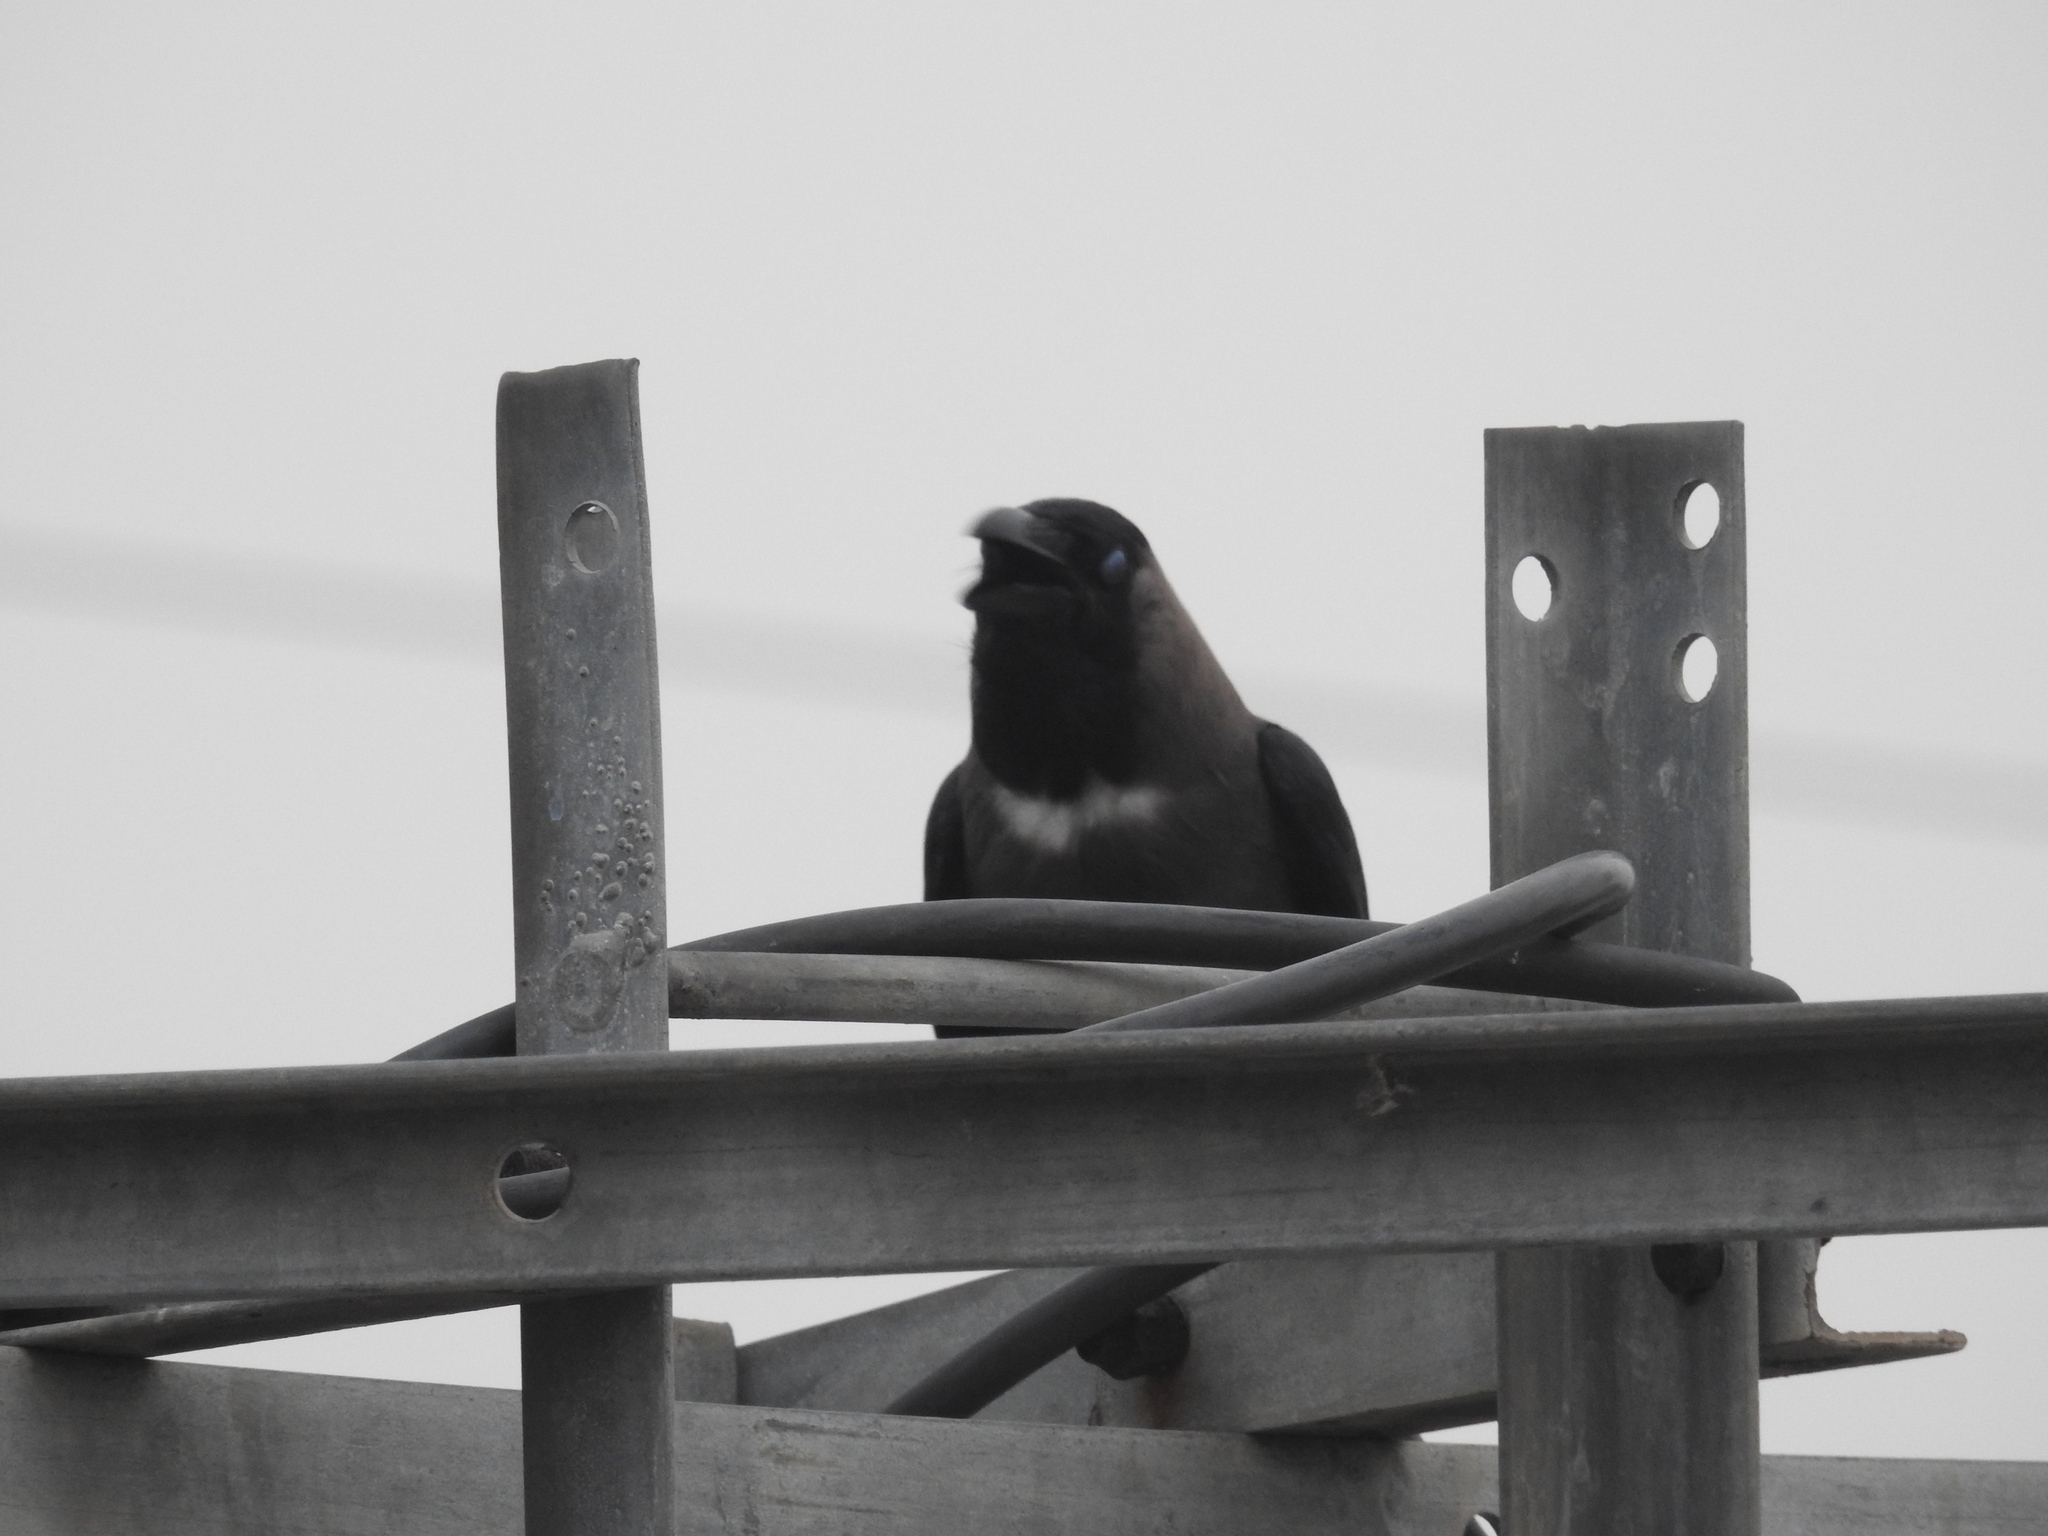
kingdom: Animalia
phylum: Chordata
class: Aves
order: Passeriformes
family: Corvidae
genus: Corvus
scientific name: Corvus splendens
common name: House crow
